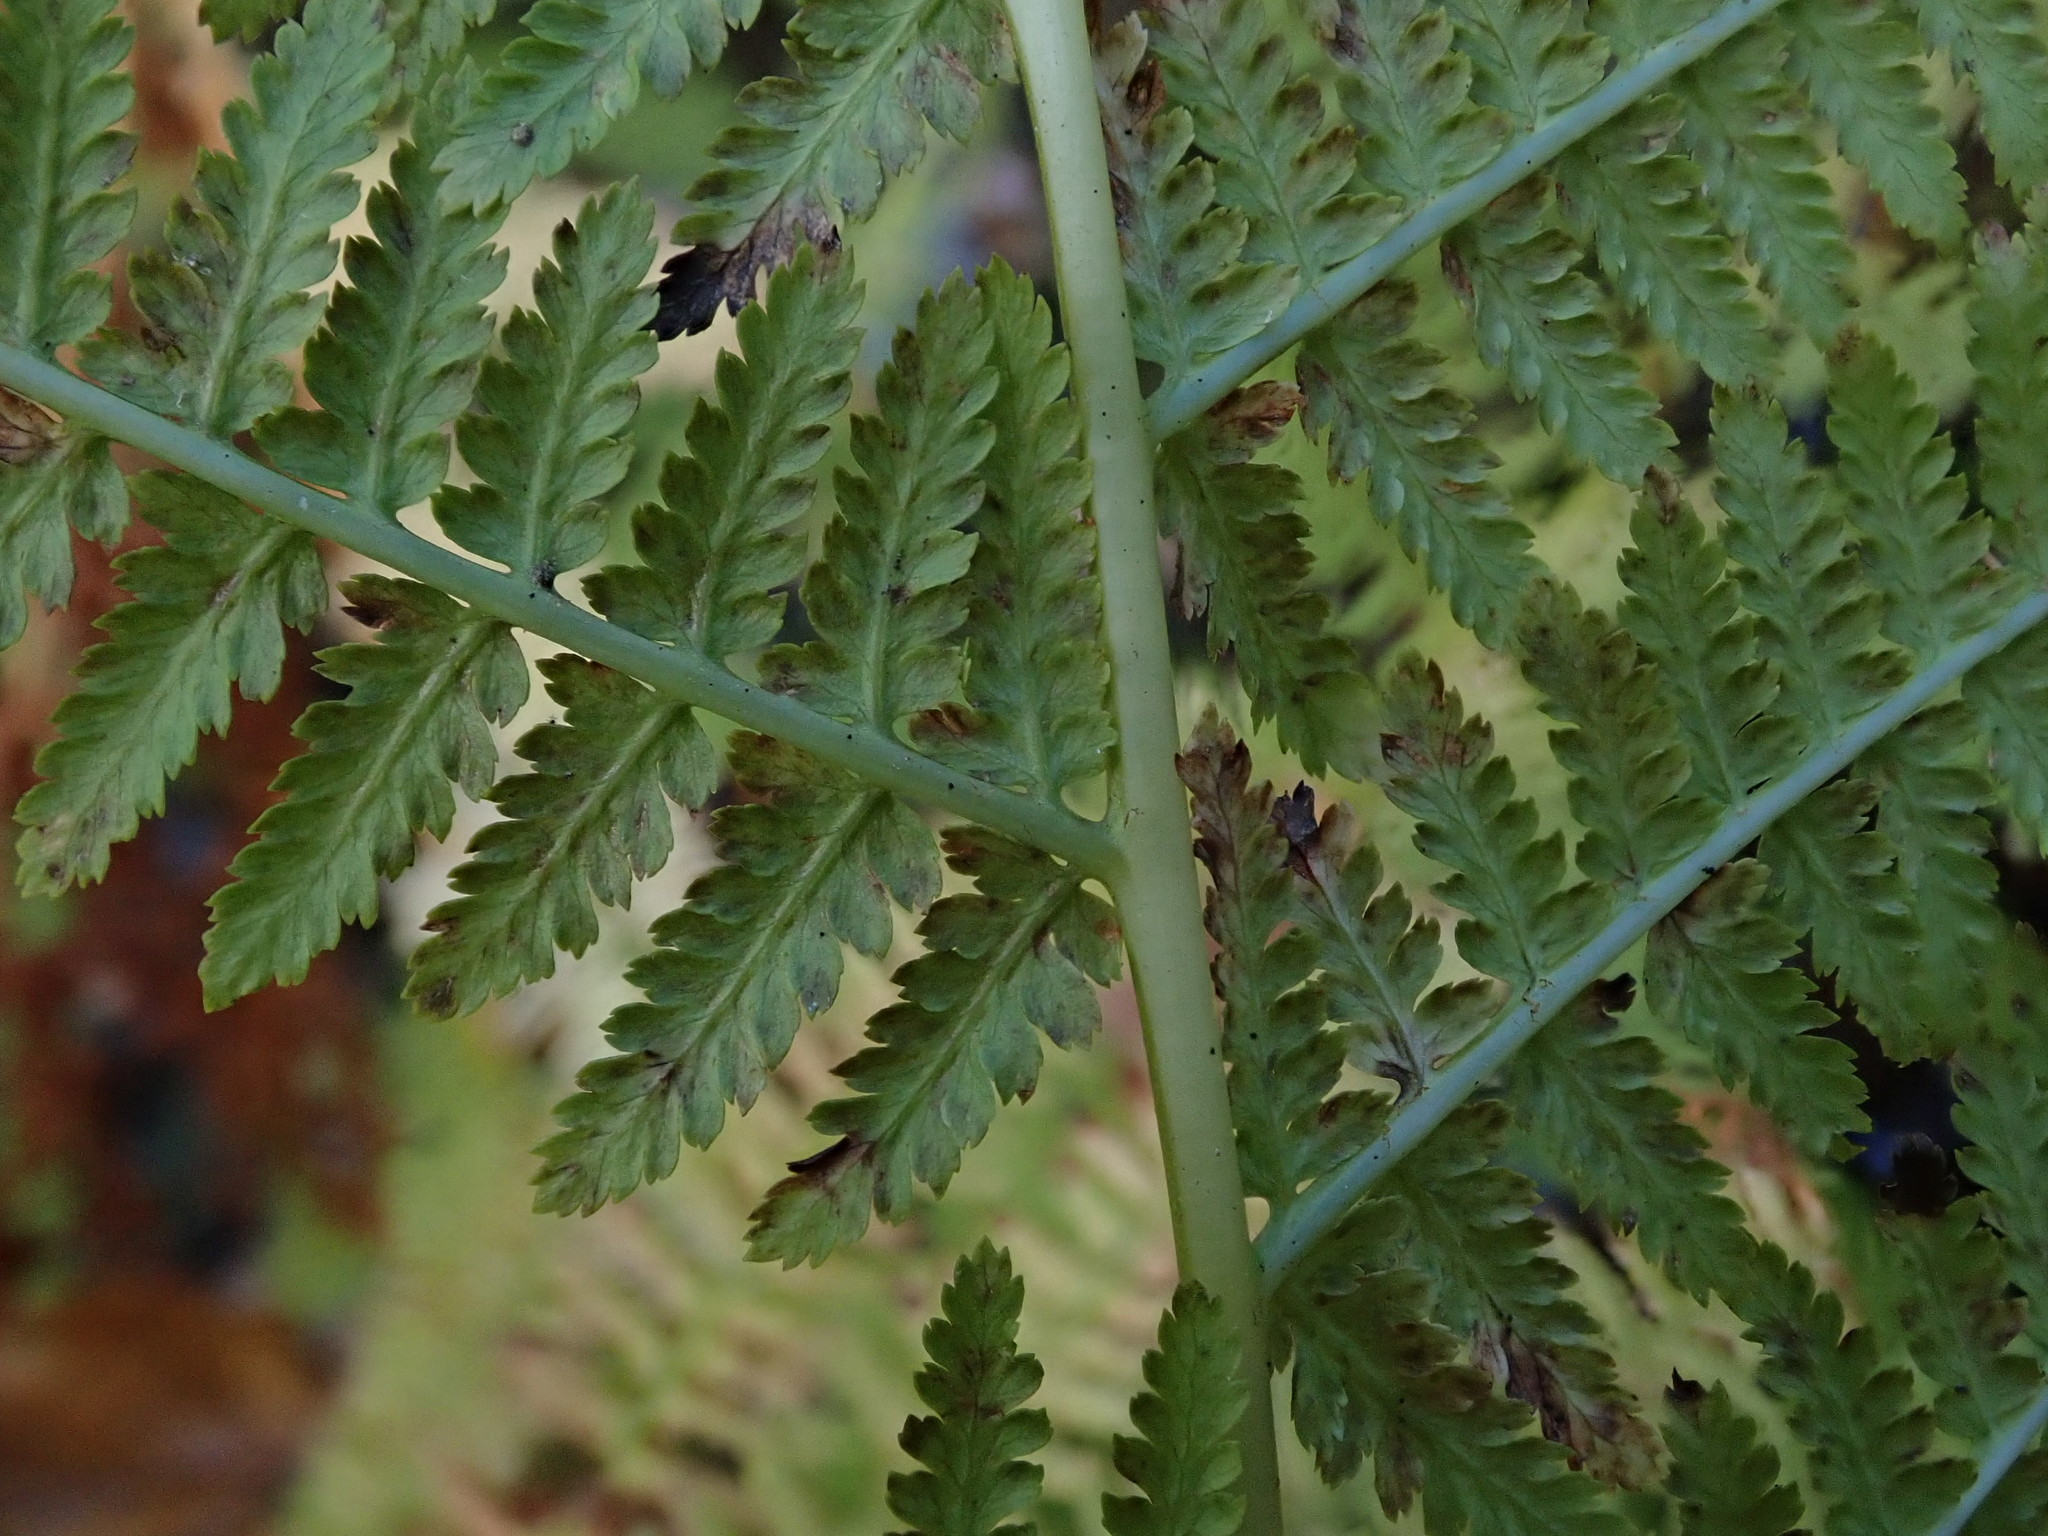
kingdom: Plantae
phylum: Tracheophyta
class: Polypodiopsida
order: Polypodiales
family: Athyriaceae
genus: Athyrium
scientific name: Athyrium filix-femina
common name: Lady fern
